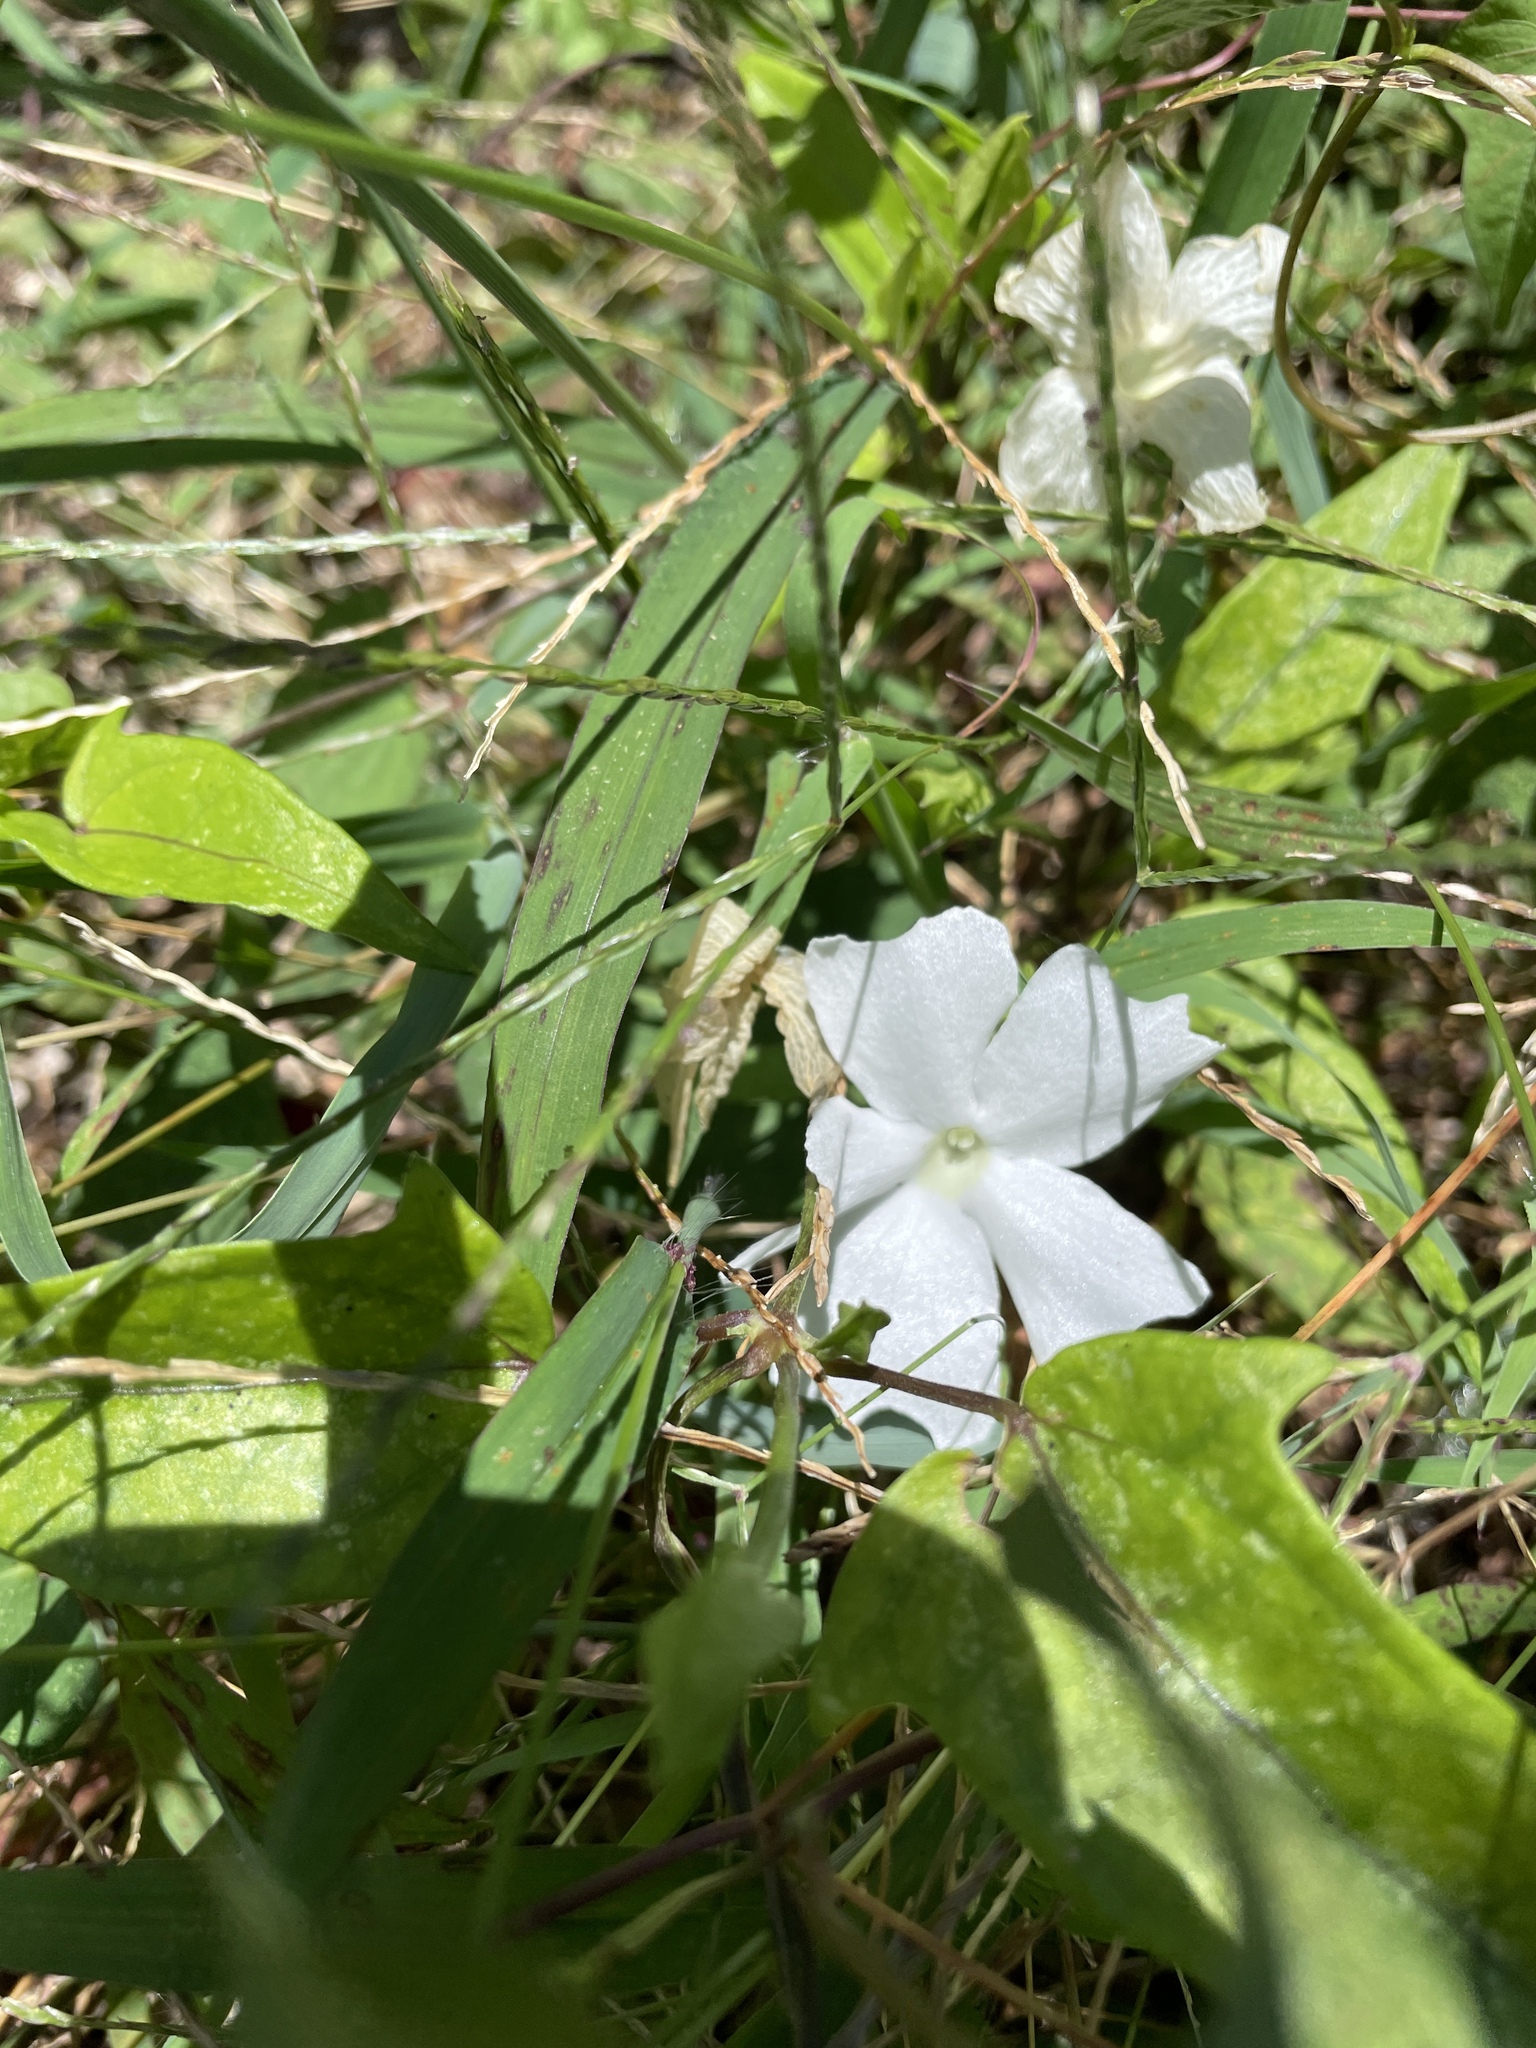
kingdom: Plantae
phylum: Tracheophyta
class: Magnoliopsida
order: Lamiales
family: Acanthaceae
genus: Thunbergia
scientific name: Thunbergia fragrans
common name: Whitelady
